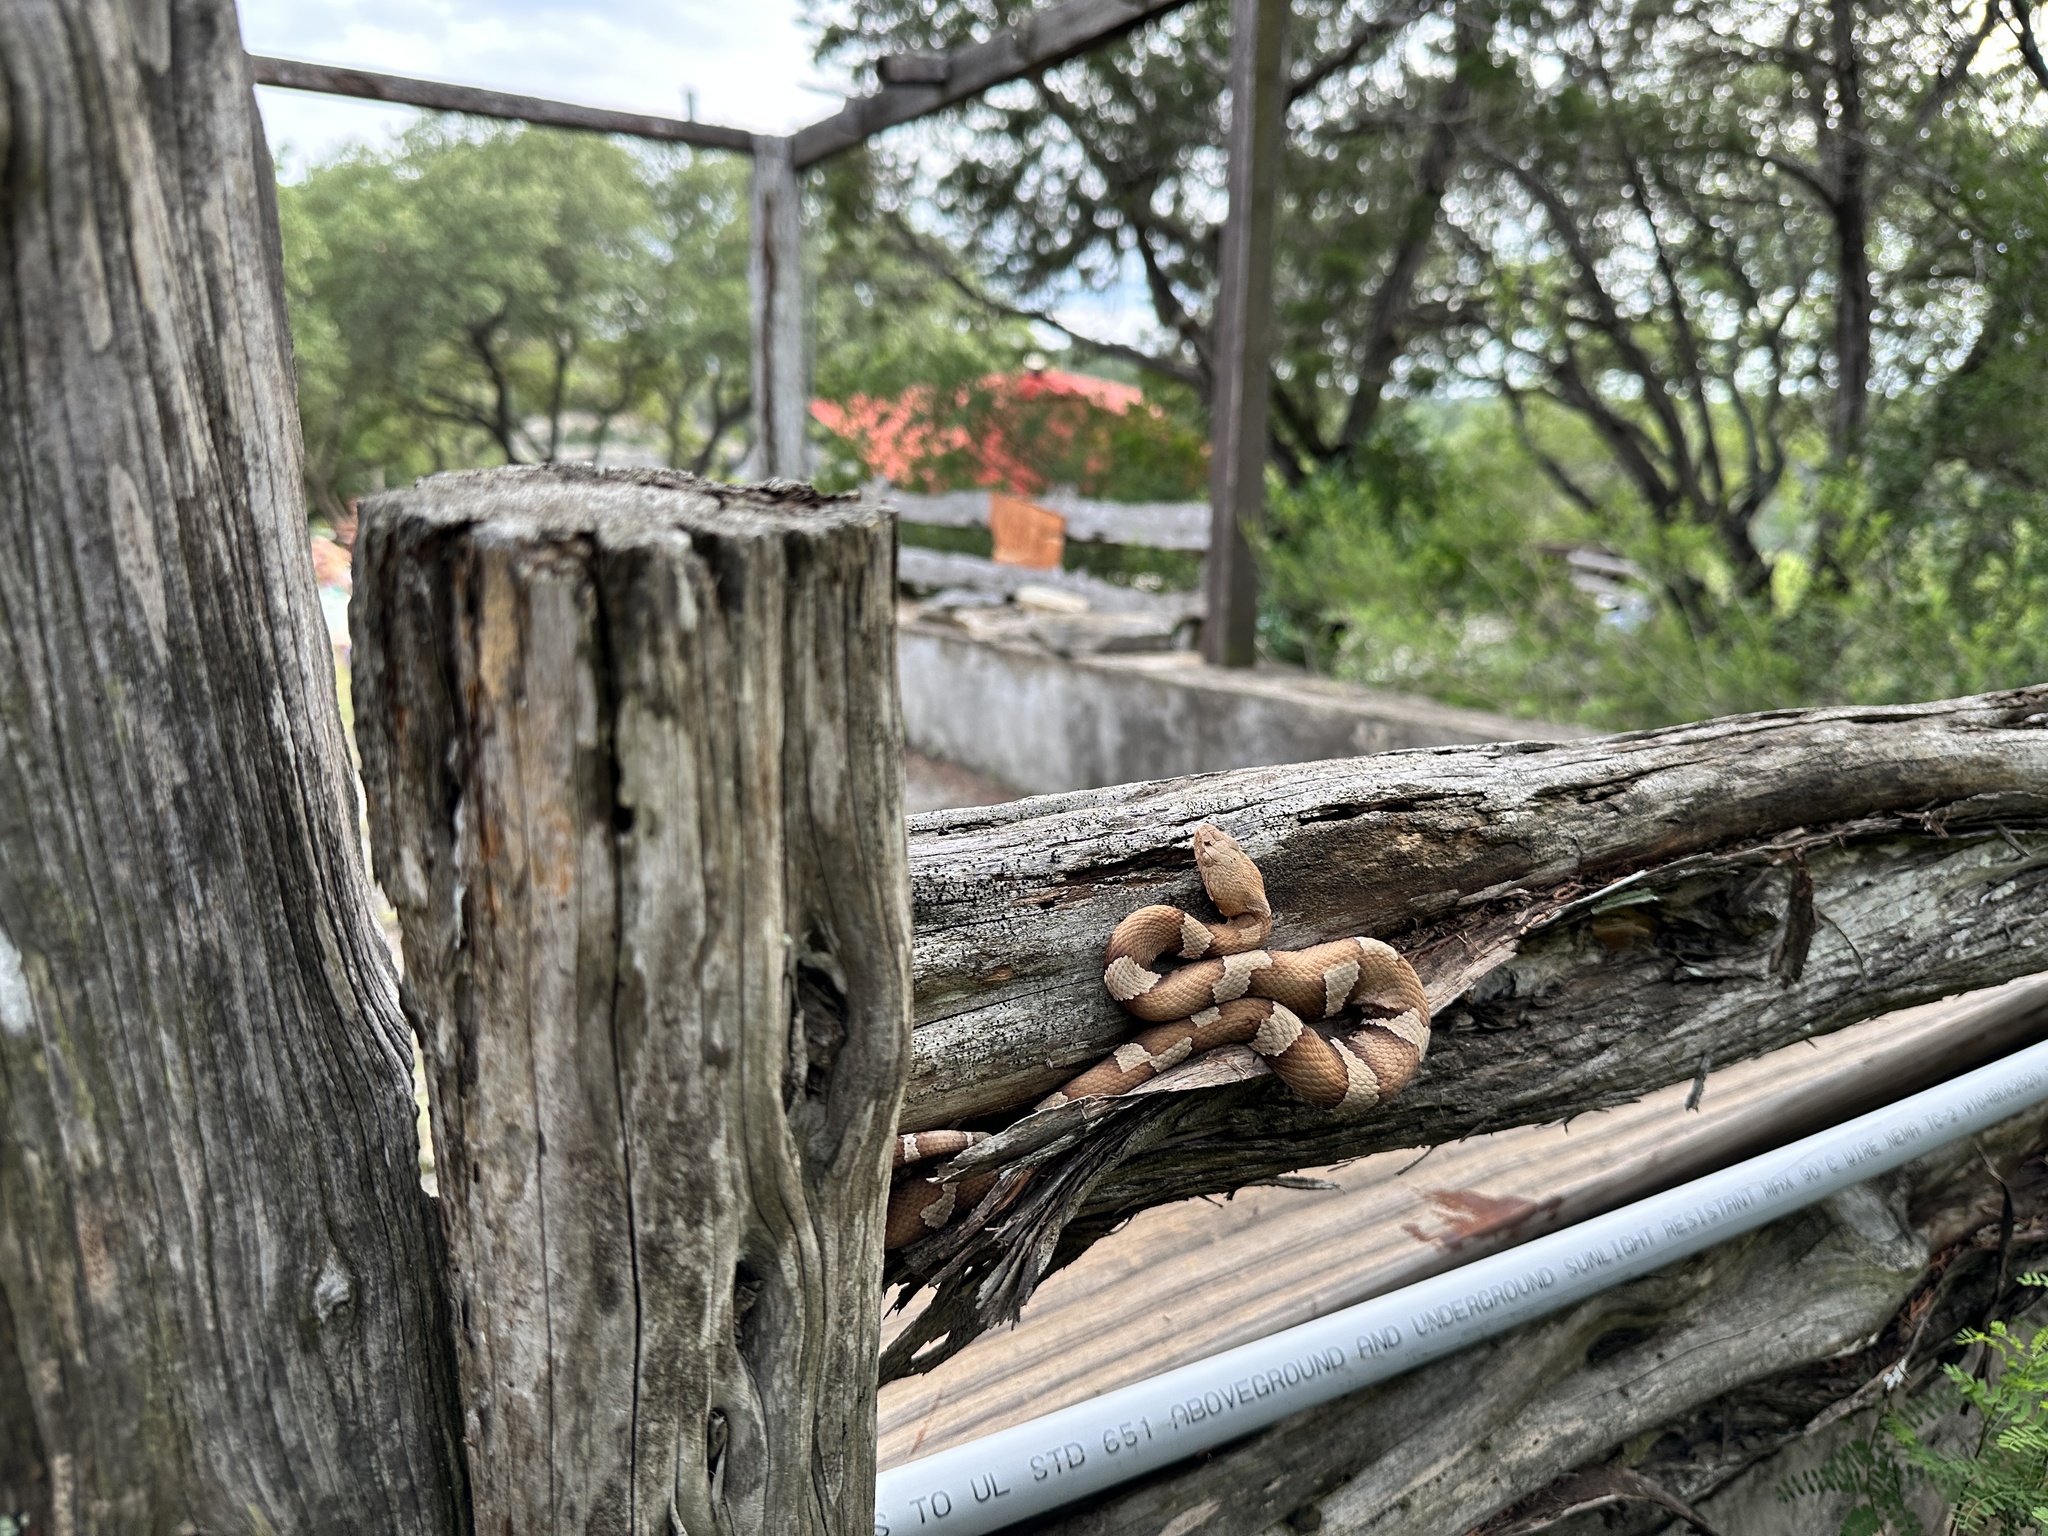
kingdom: Animalia
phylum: Chordata
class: Squamata
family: Viperidae
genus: Agkistrodon
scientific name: Agkistrodon laticinctus
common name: Broad-banded copperhead
